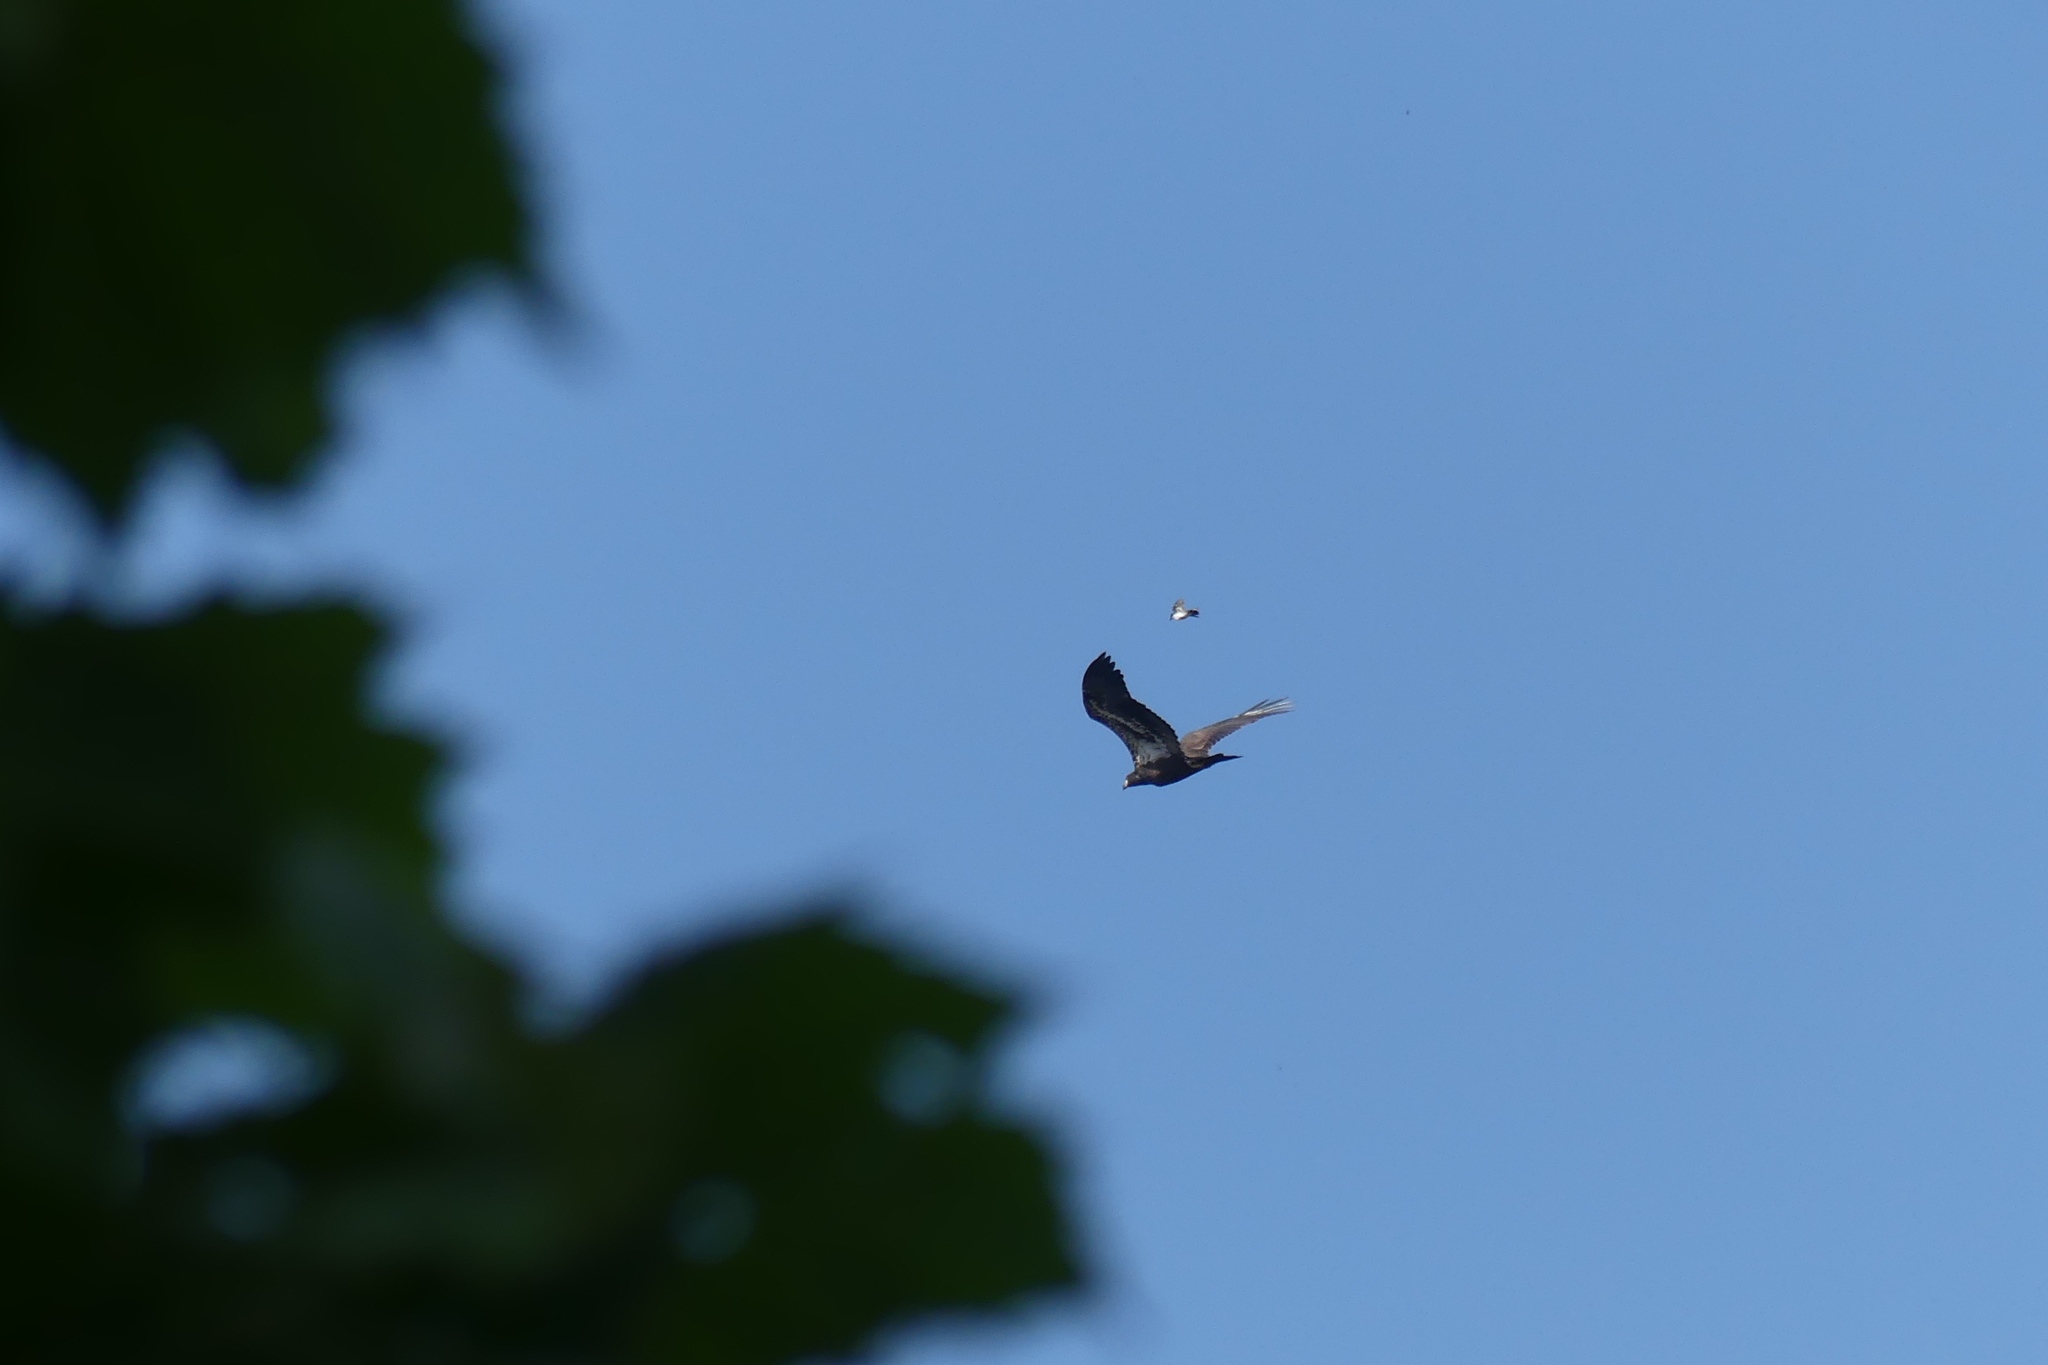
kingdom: Animalia
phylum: Chordata
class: Aves
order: Accipitriformes
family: Accipitridae
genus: Haliaeetus
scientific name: Haliaeetus leucocephalus
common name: Bald eagle
